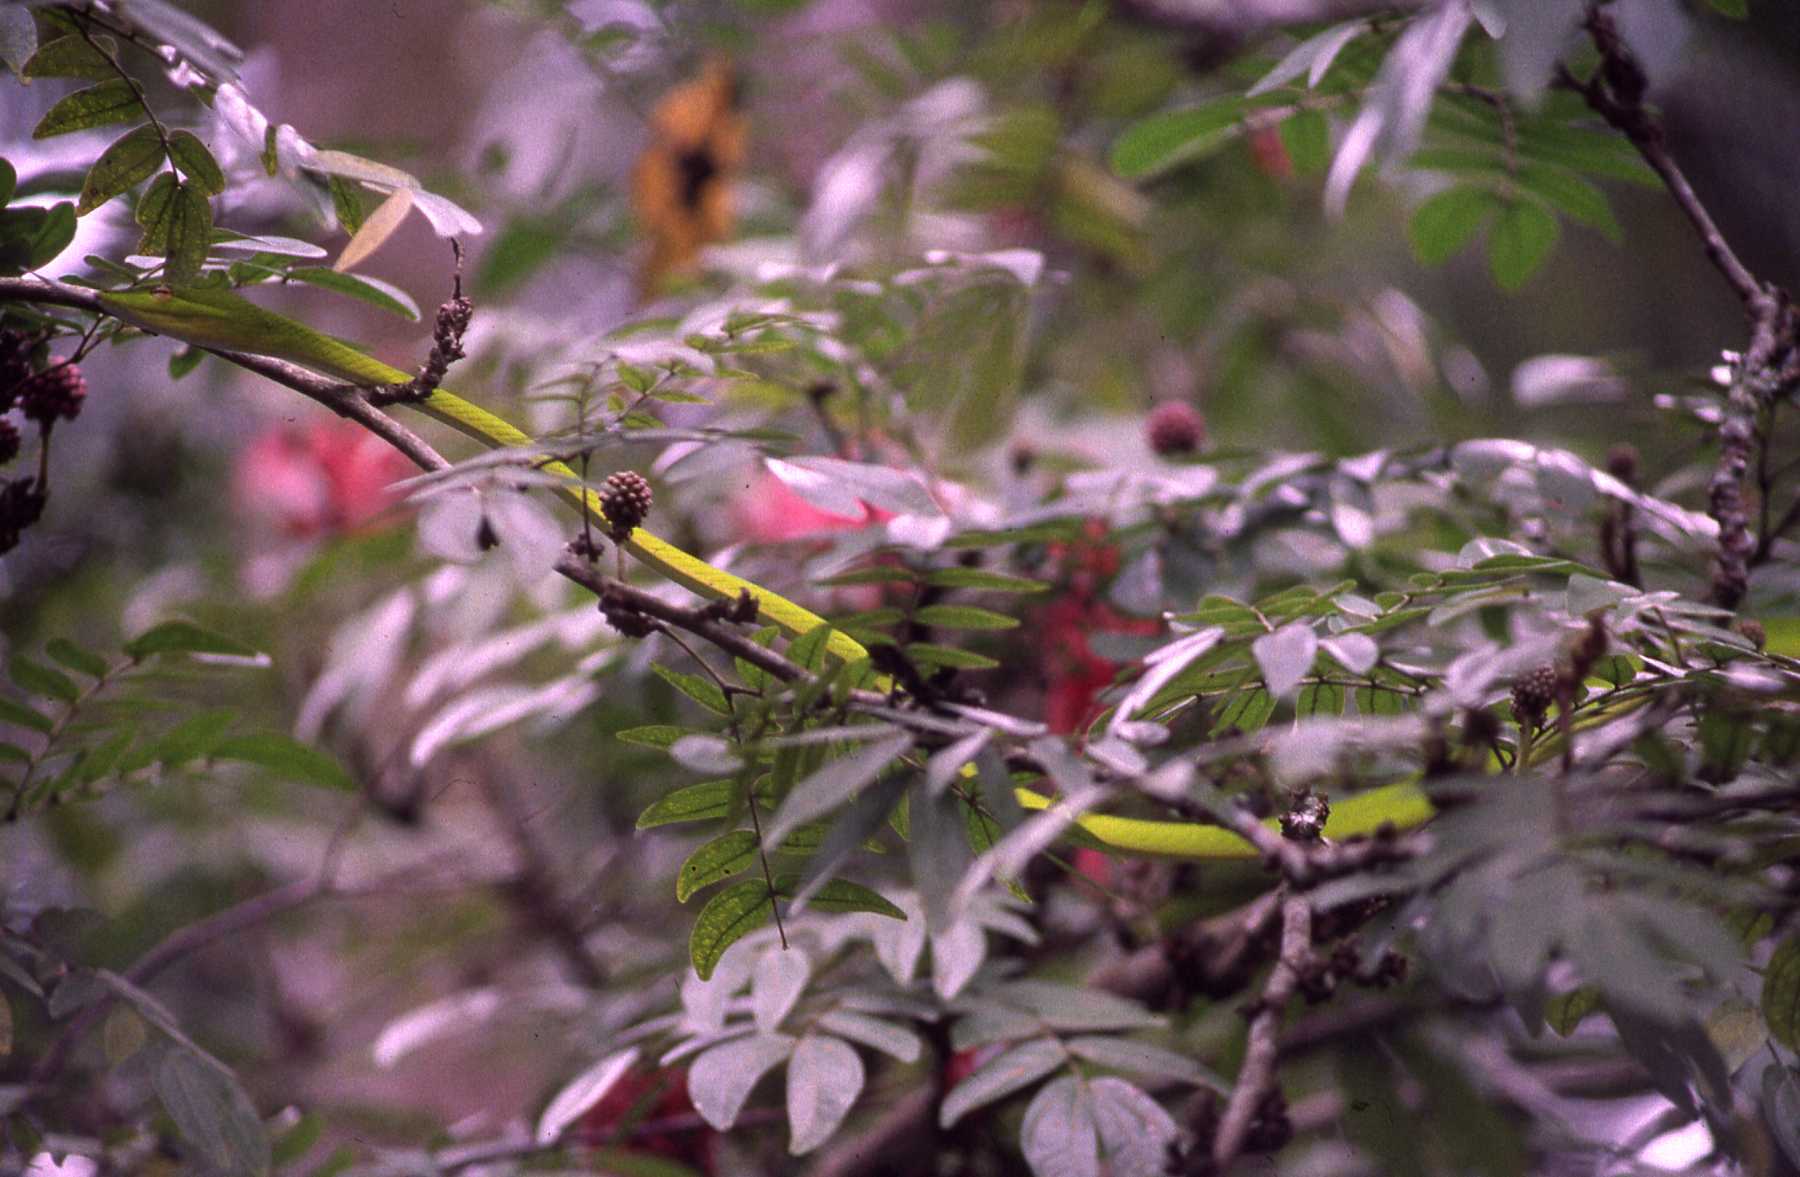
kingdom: Animalia
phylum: Chordata
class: Squamata
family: Colubridae
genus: Ahaetulla
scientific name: Ahaetulla prasina
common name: Oriental whip snake
